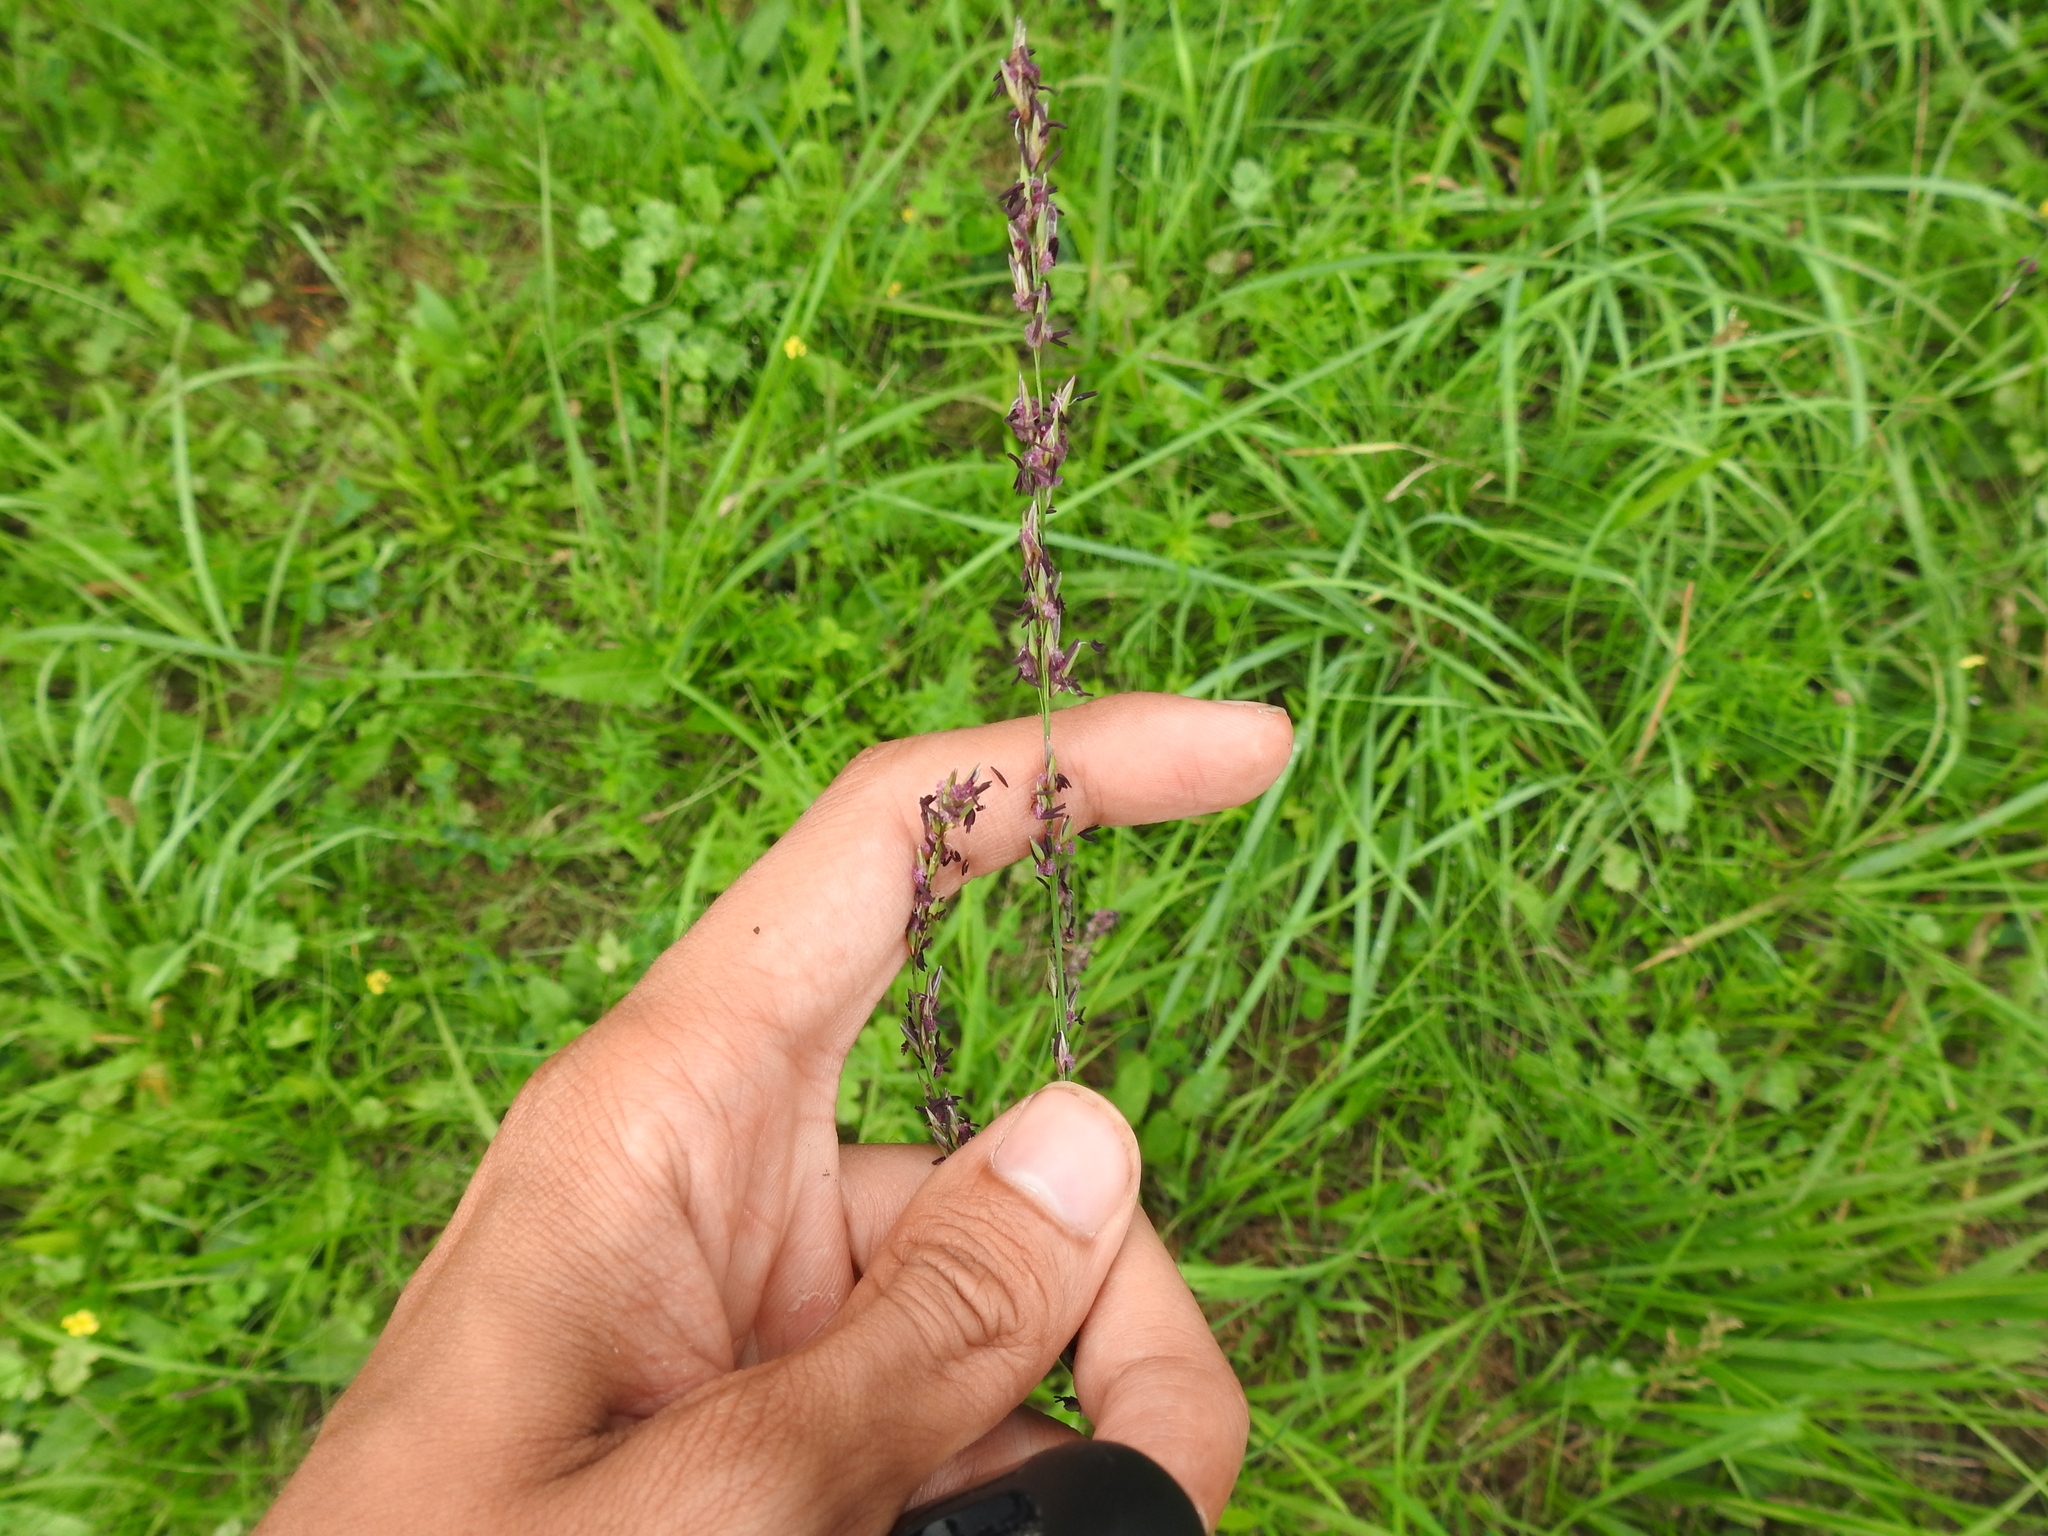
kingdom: Plantae
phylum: Tracheophyta
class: Liliopsida
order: Poales
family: Poaceae
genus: Molinia
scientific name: Molinia caerulea
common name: Purple moor-grass
